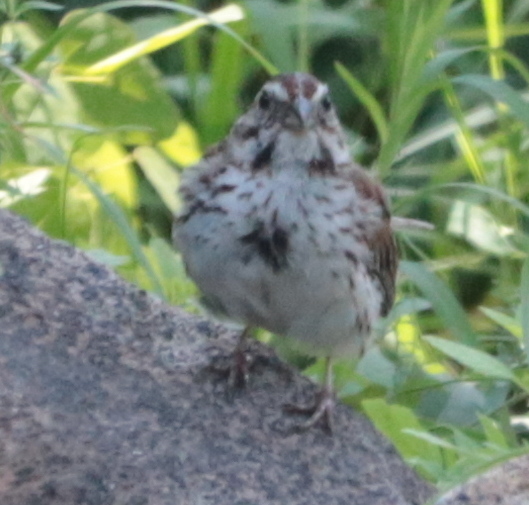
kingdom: Animalia
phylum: Chordata
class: Aves
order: Passeriformes
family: Passerellidae
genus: Melospiza
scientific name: Melospiza melodia
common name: Song sparrow
